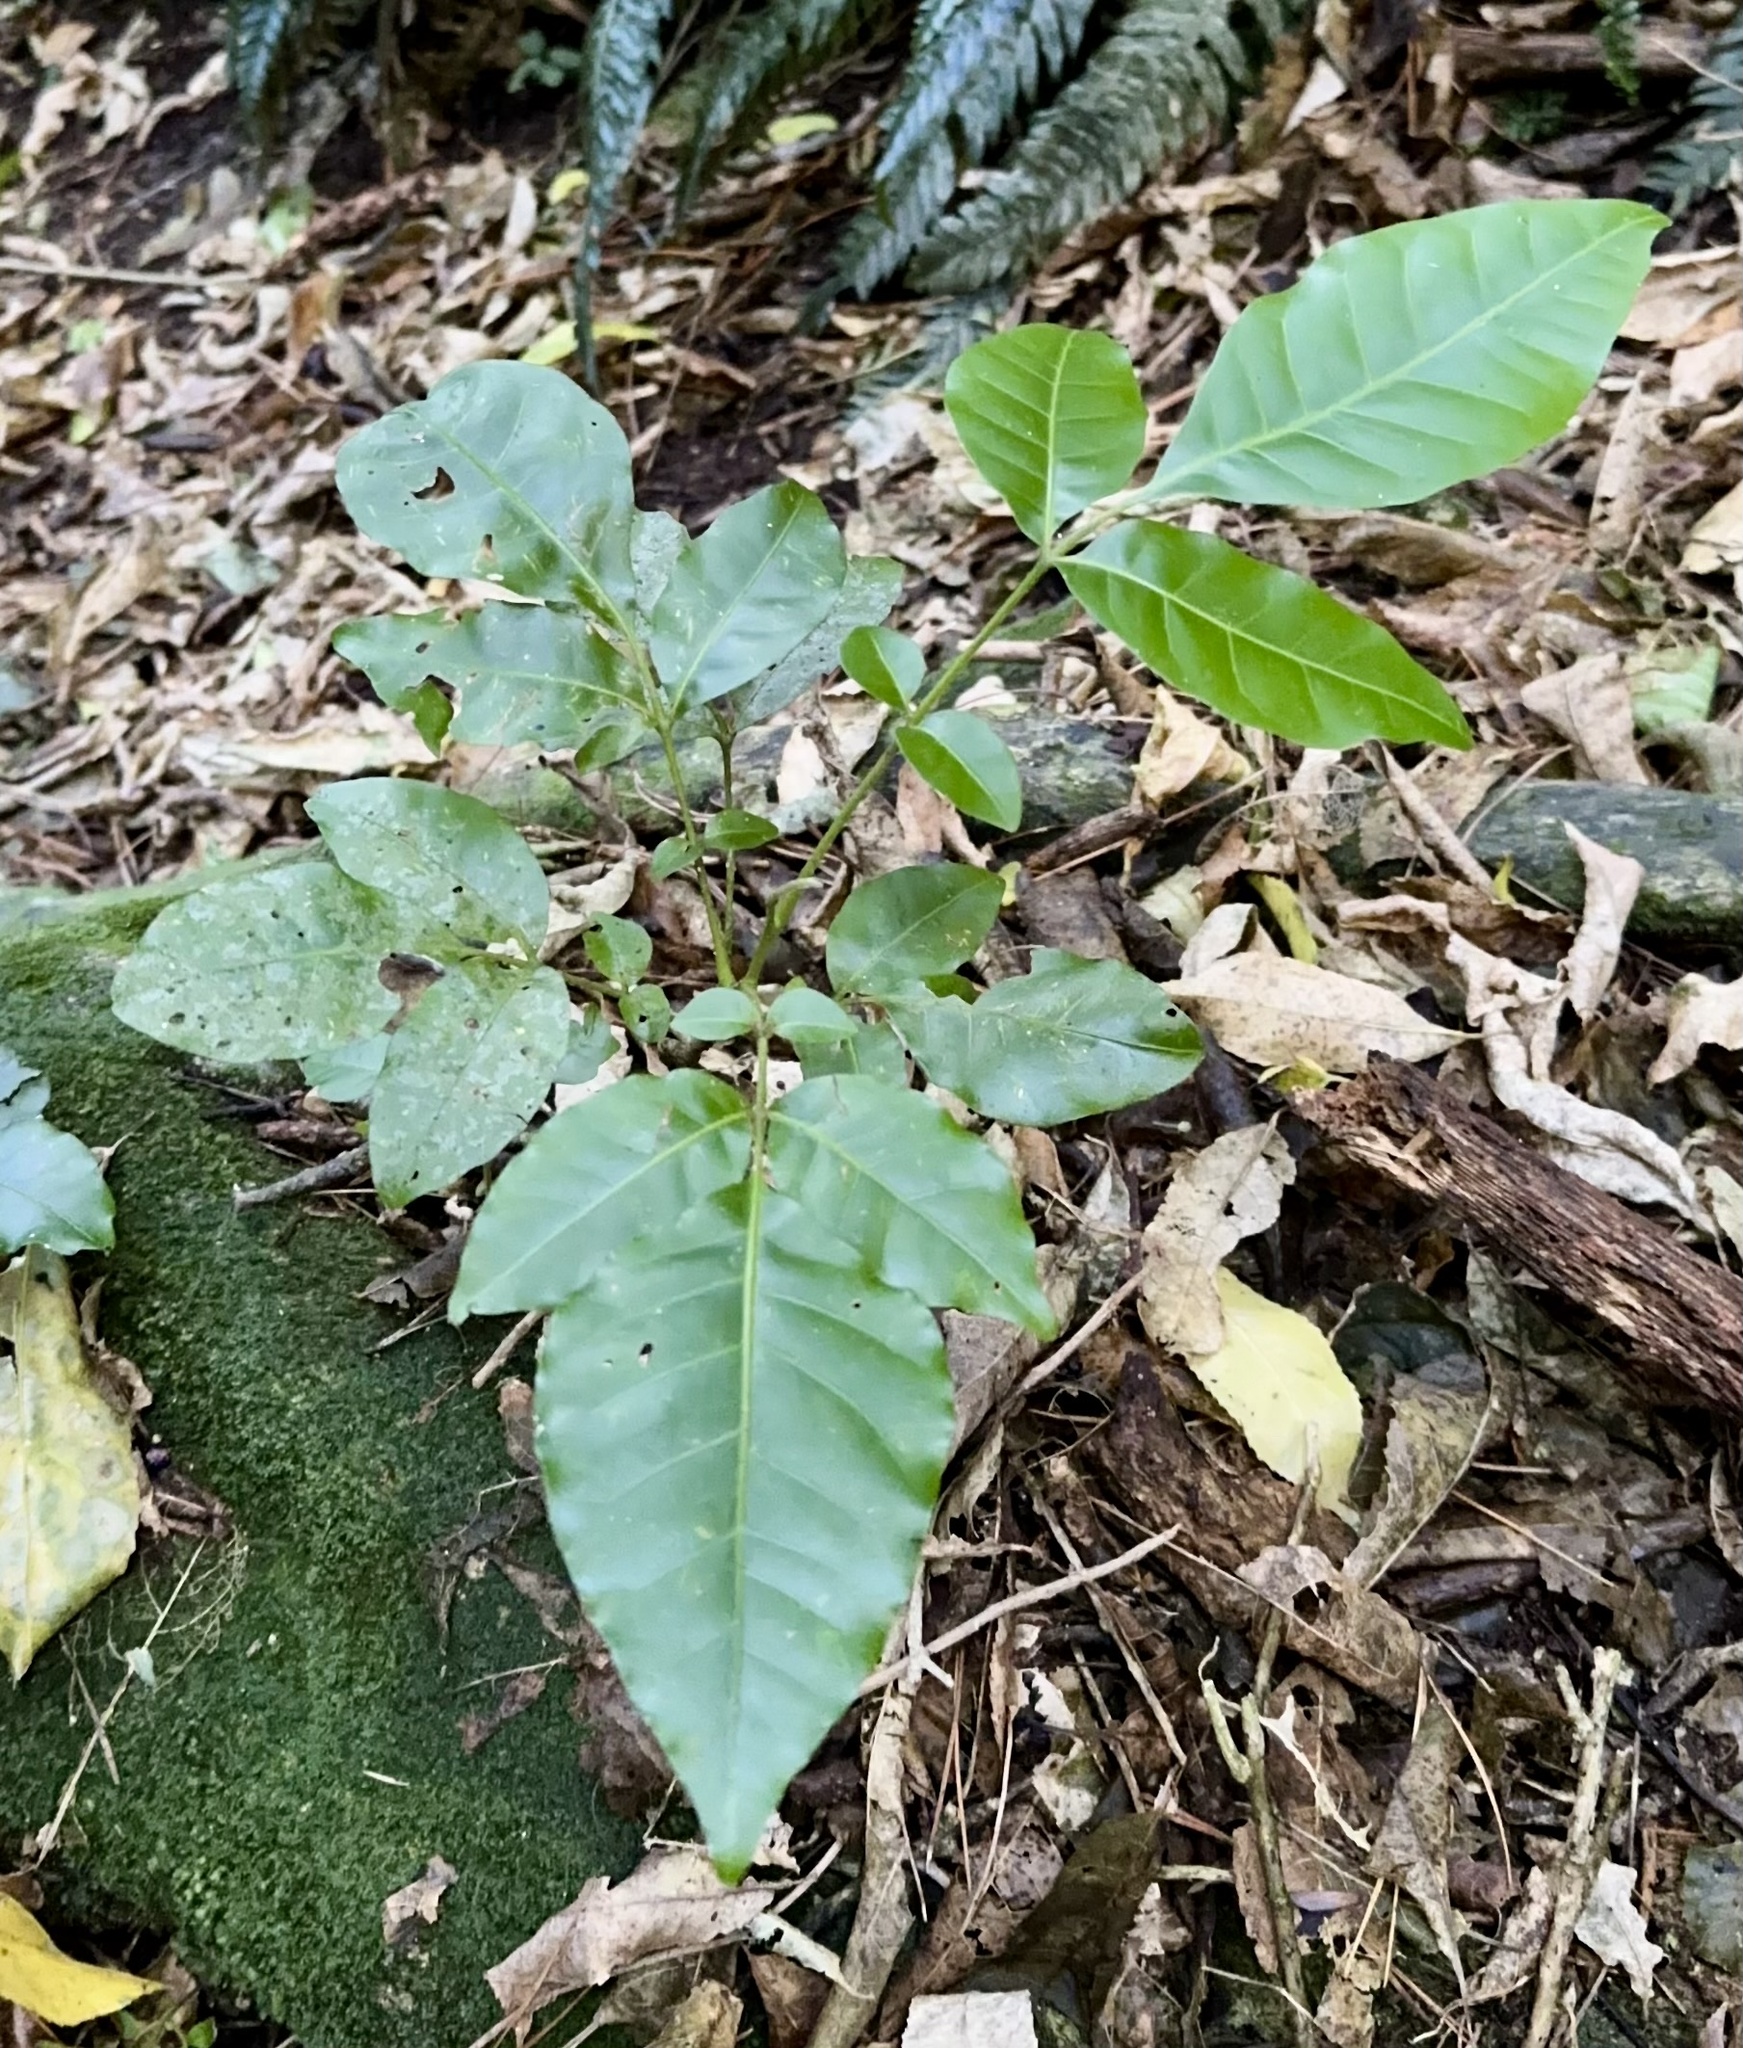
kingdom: Plantae
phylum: Tracheophyta
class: Magnoliopsida
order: Sapindales
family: Meliaceae
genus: Didymocheton
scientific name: Didymocheton spectabilis
